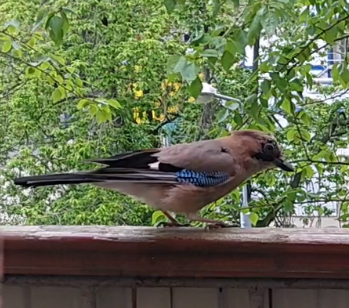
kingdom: Animalia
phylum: Chordata
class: Aves
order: Passeriformes
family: Corvidae
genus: Garrulus
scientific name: Garrulus glandarius
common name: Eurasian jay
